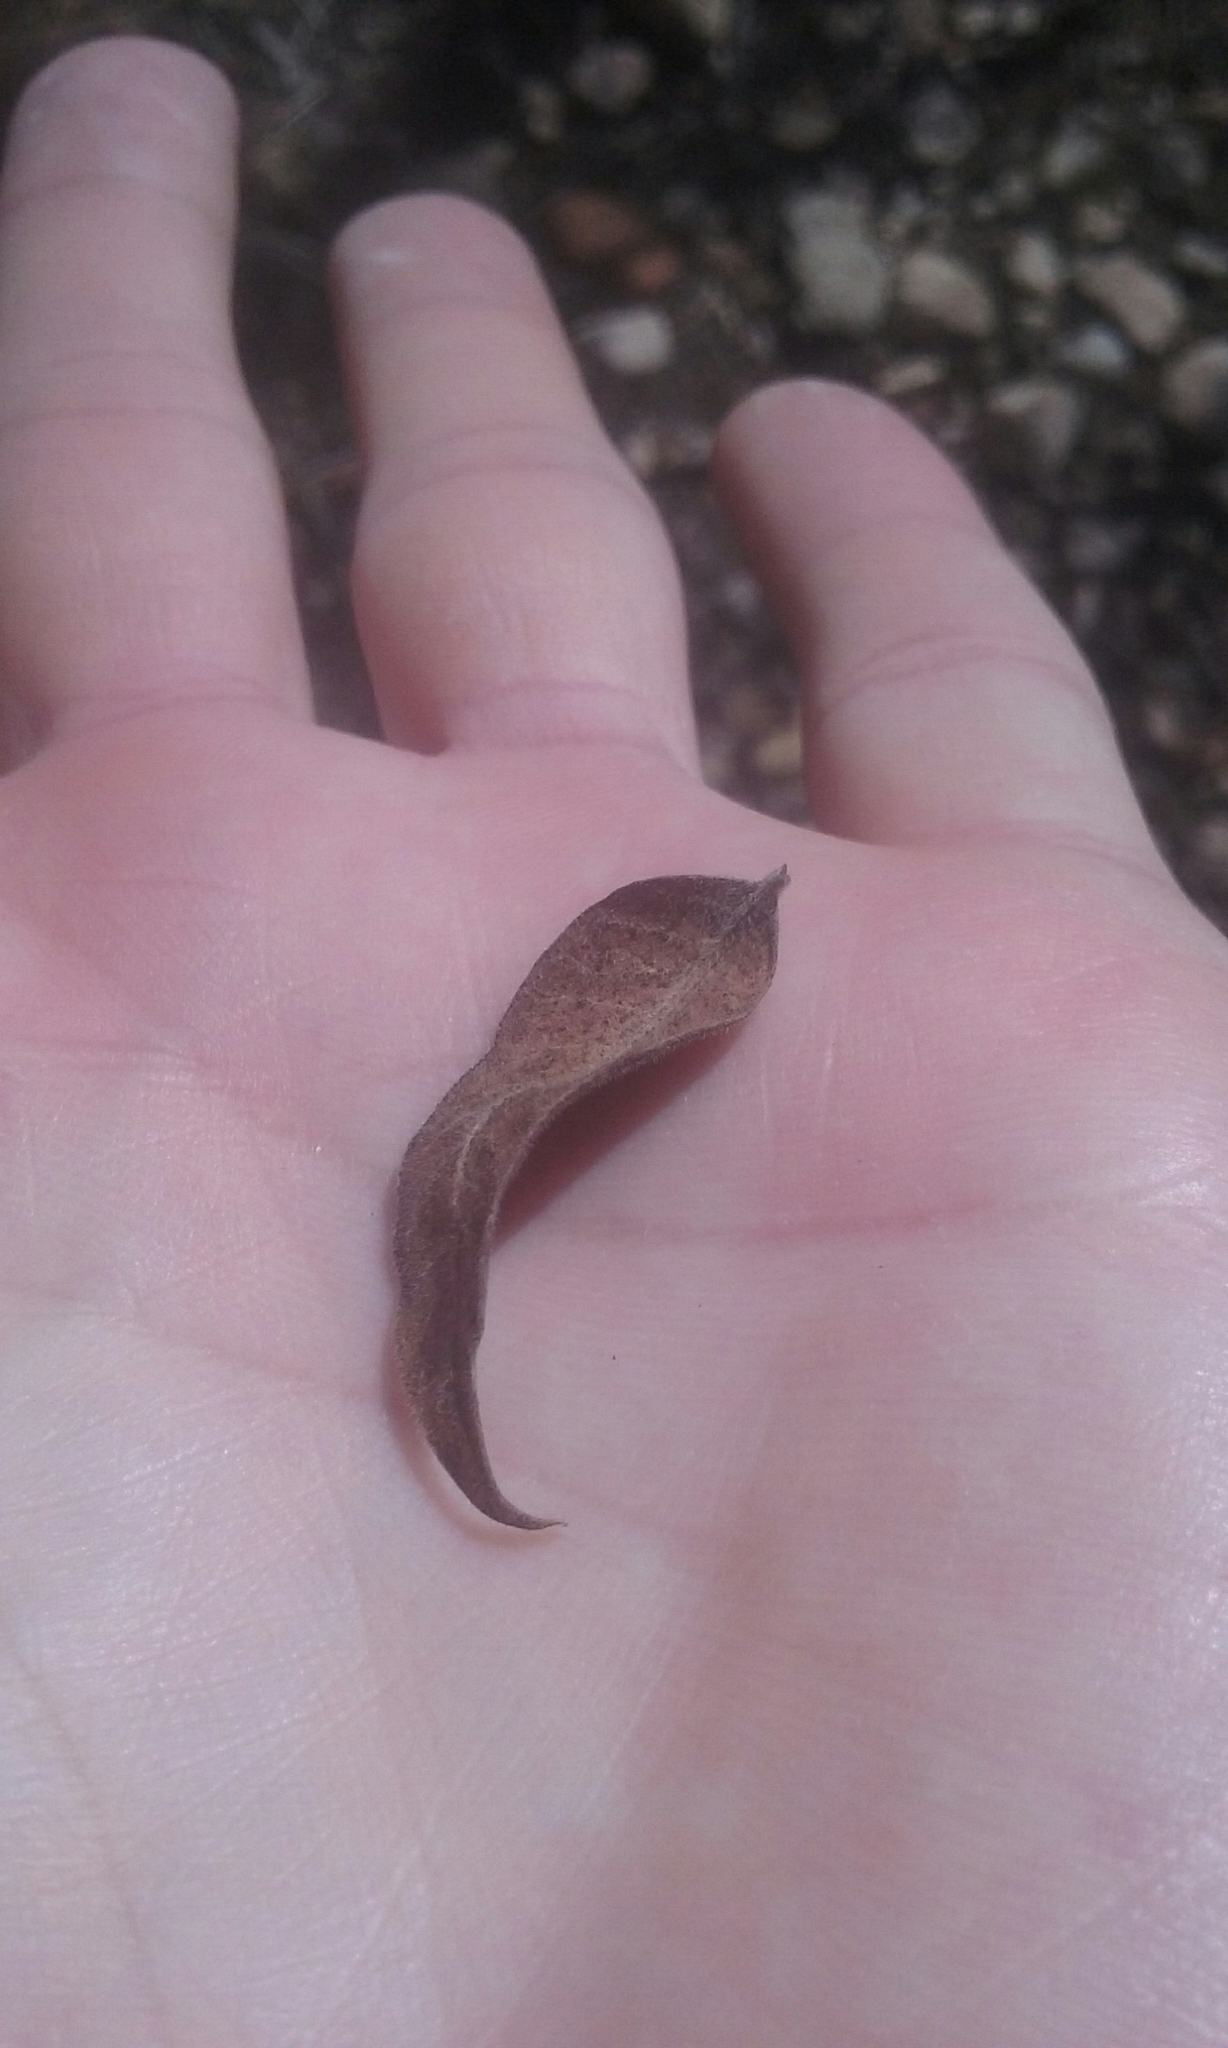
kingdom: Plantae
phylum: Tracheophyta
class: Magnoliopsida
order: Sapindales
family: Anacardiaceae
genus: Rhus
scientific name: Rhus lanceolata
